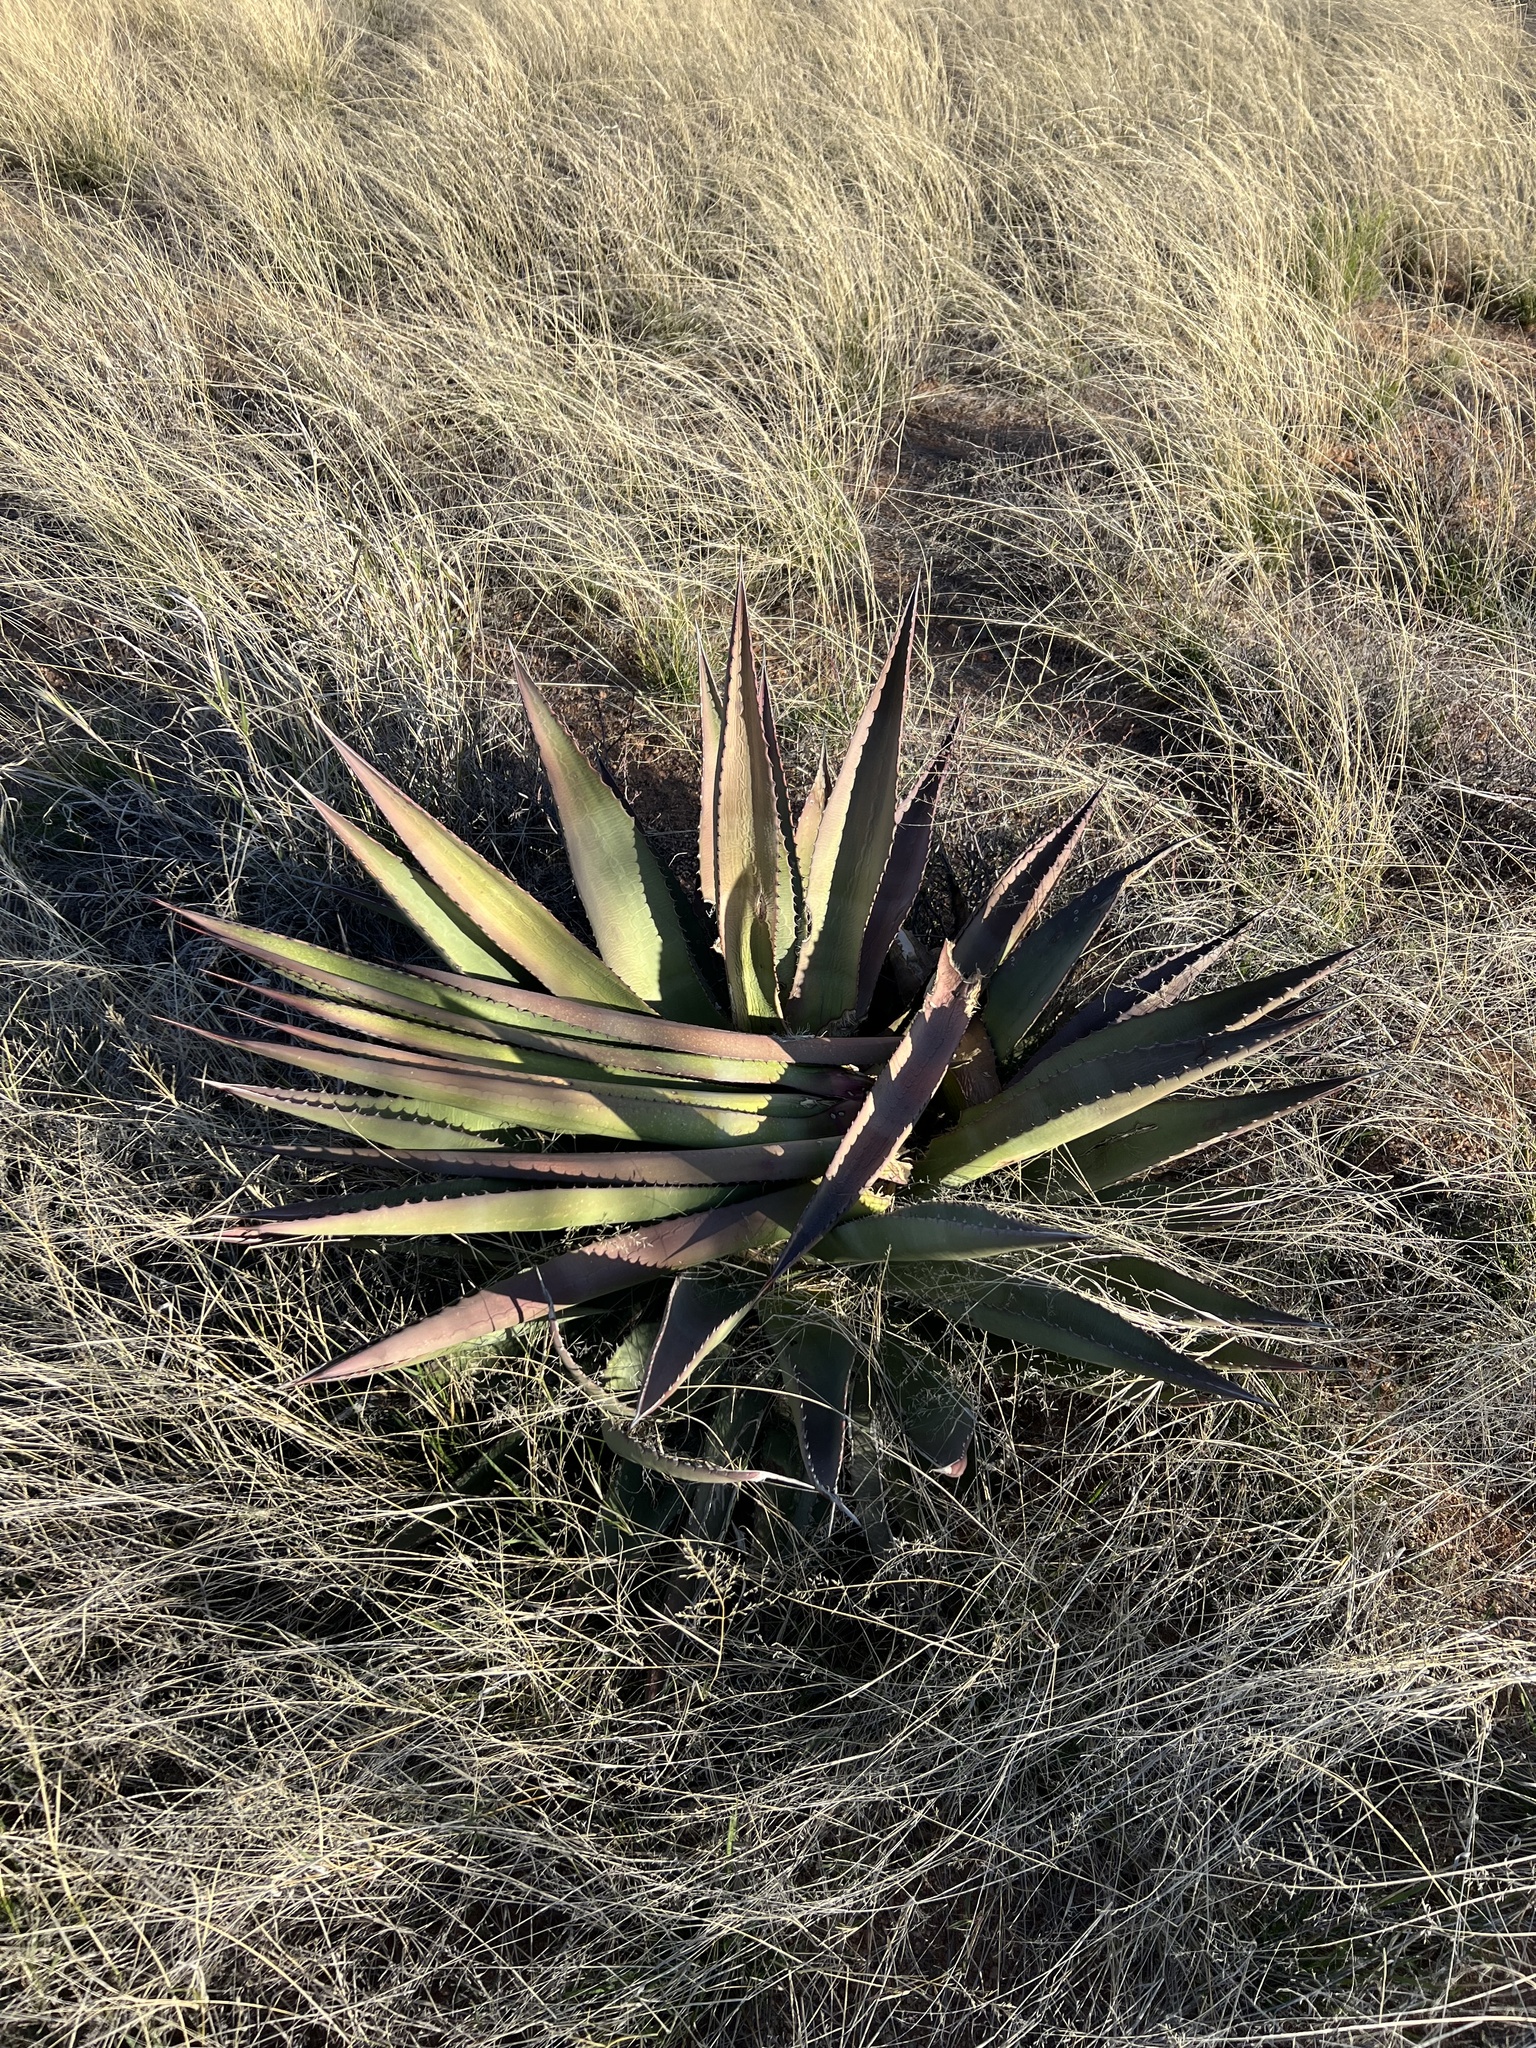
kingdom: Plantae
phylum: Tracheophyta
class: Liliopsida
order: Asparagales
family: Asparagaceae
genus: Agave
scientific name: Agave palmeri
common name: Palmer agave
